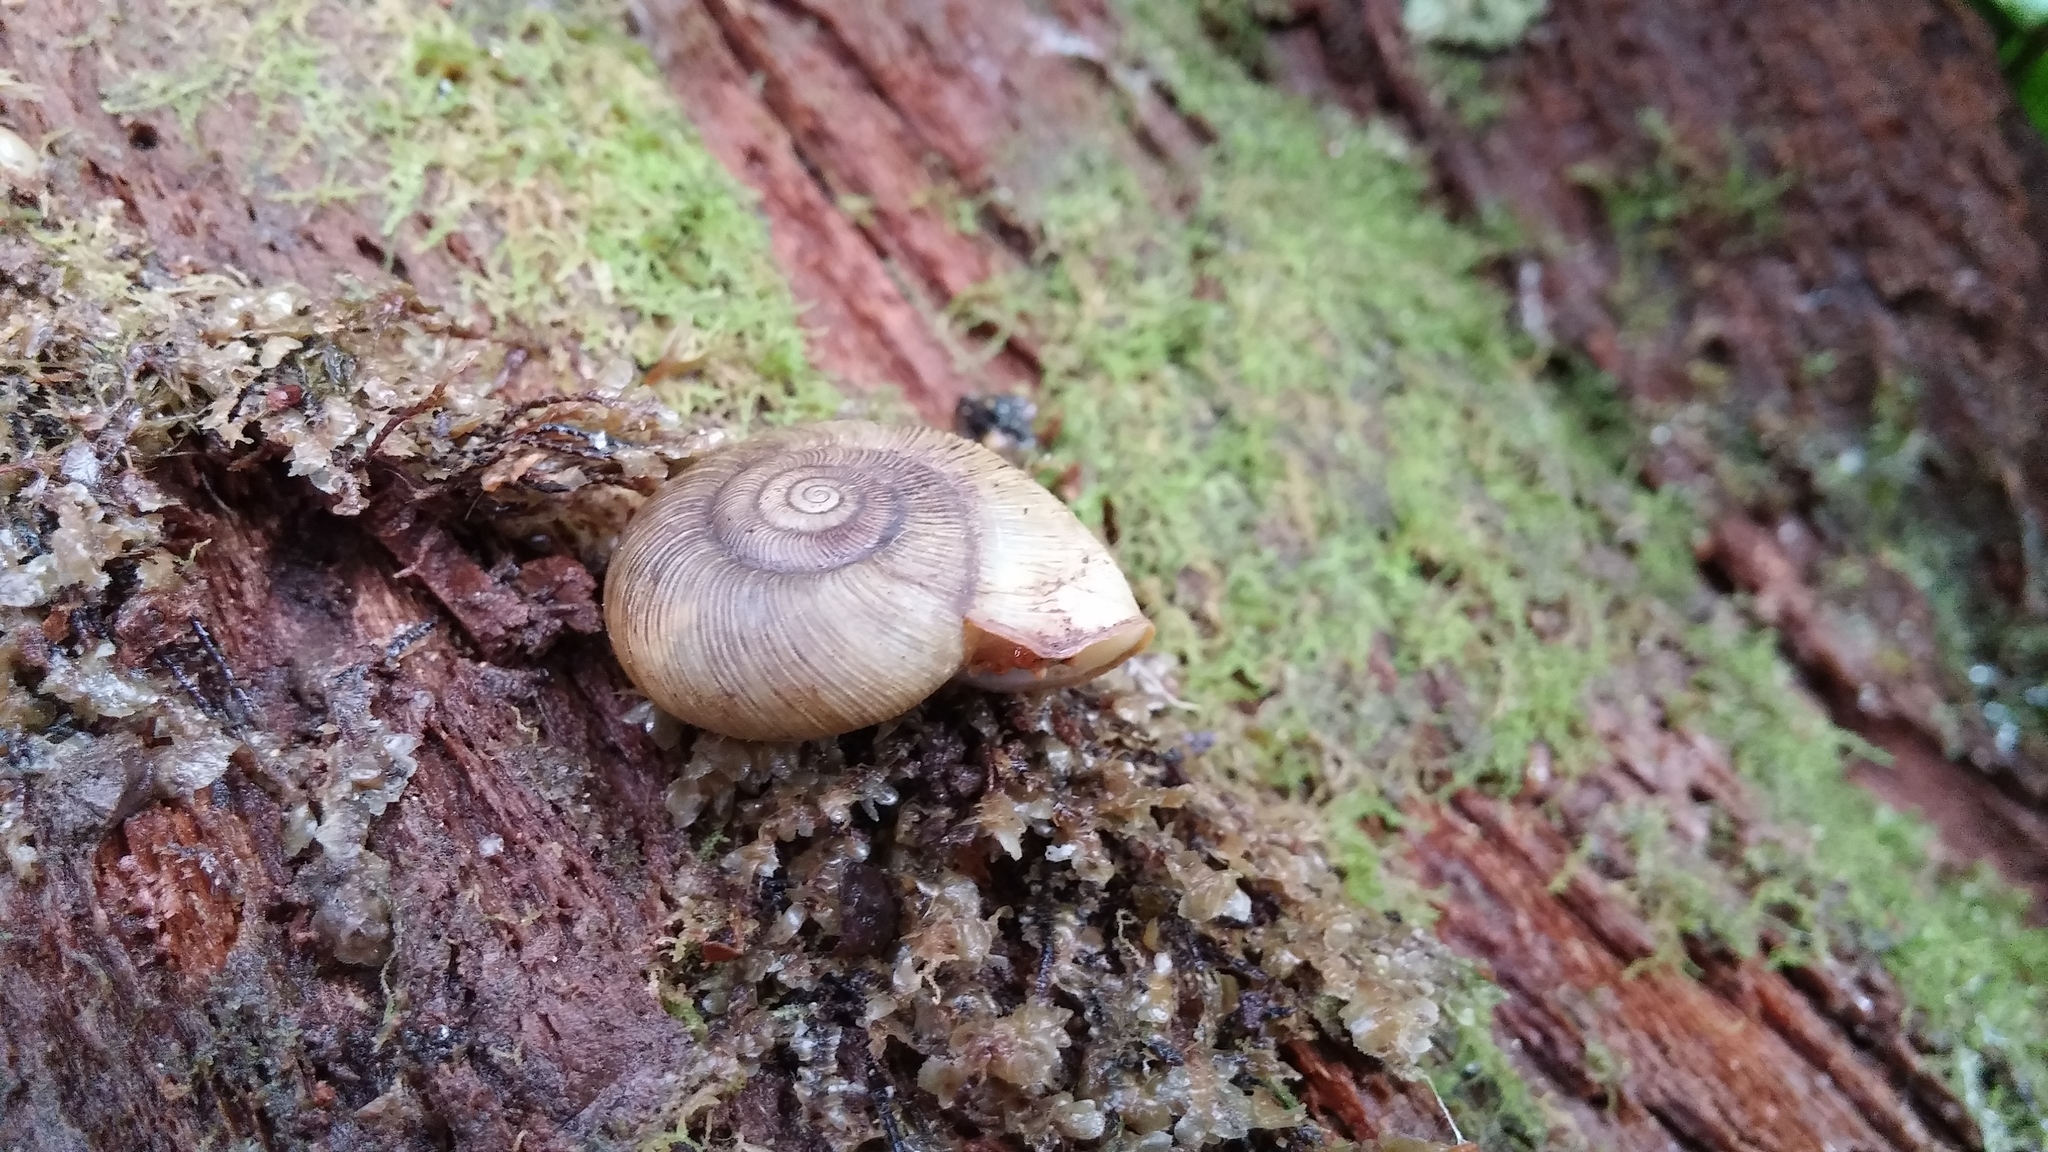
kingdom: Animalia
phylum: Mollusca
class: Gastropoda
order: Stylommatophora
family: Haplotrematidae
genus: Ancotrema
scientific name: Ancotrema sportella
